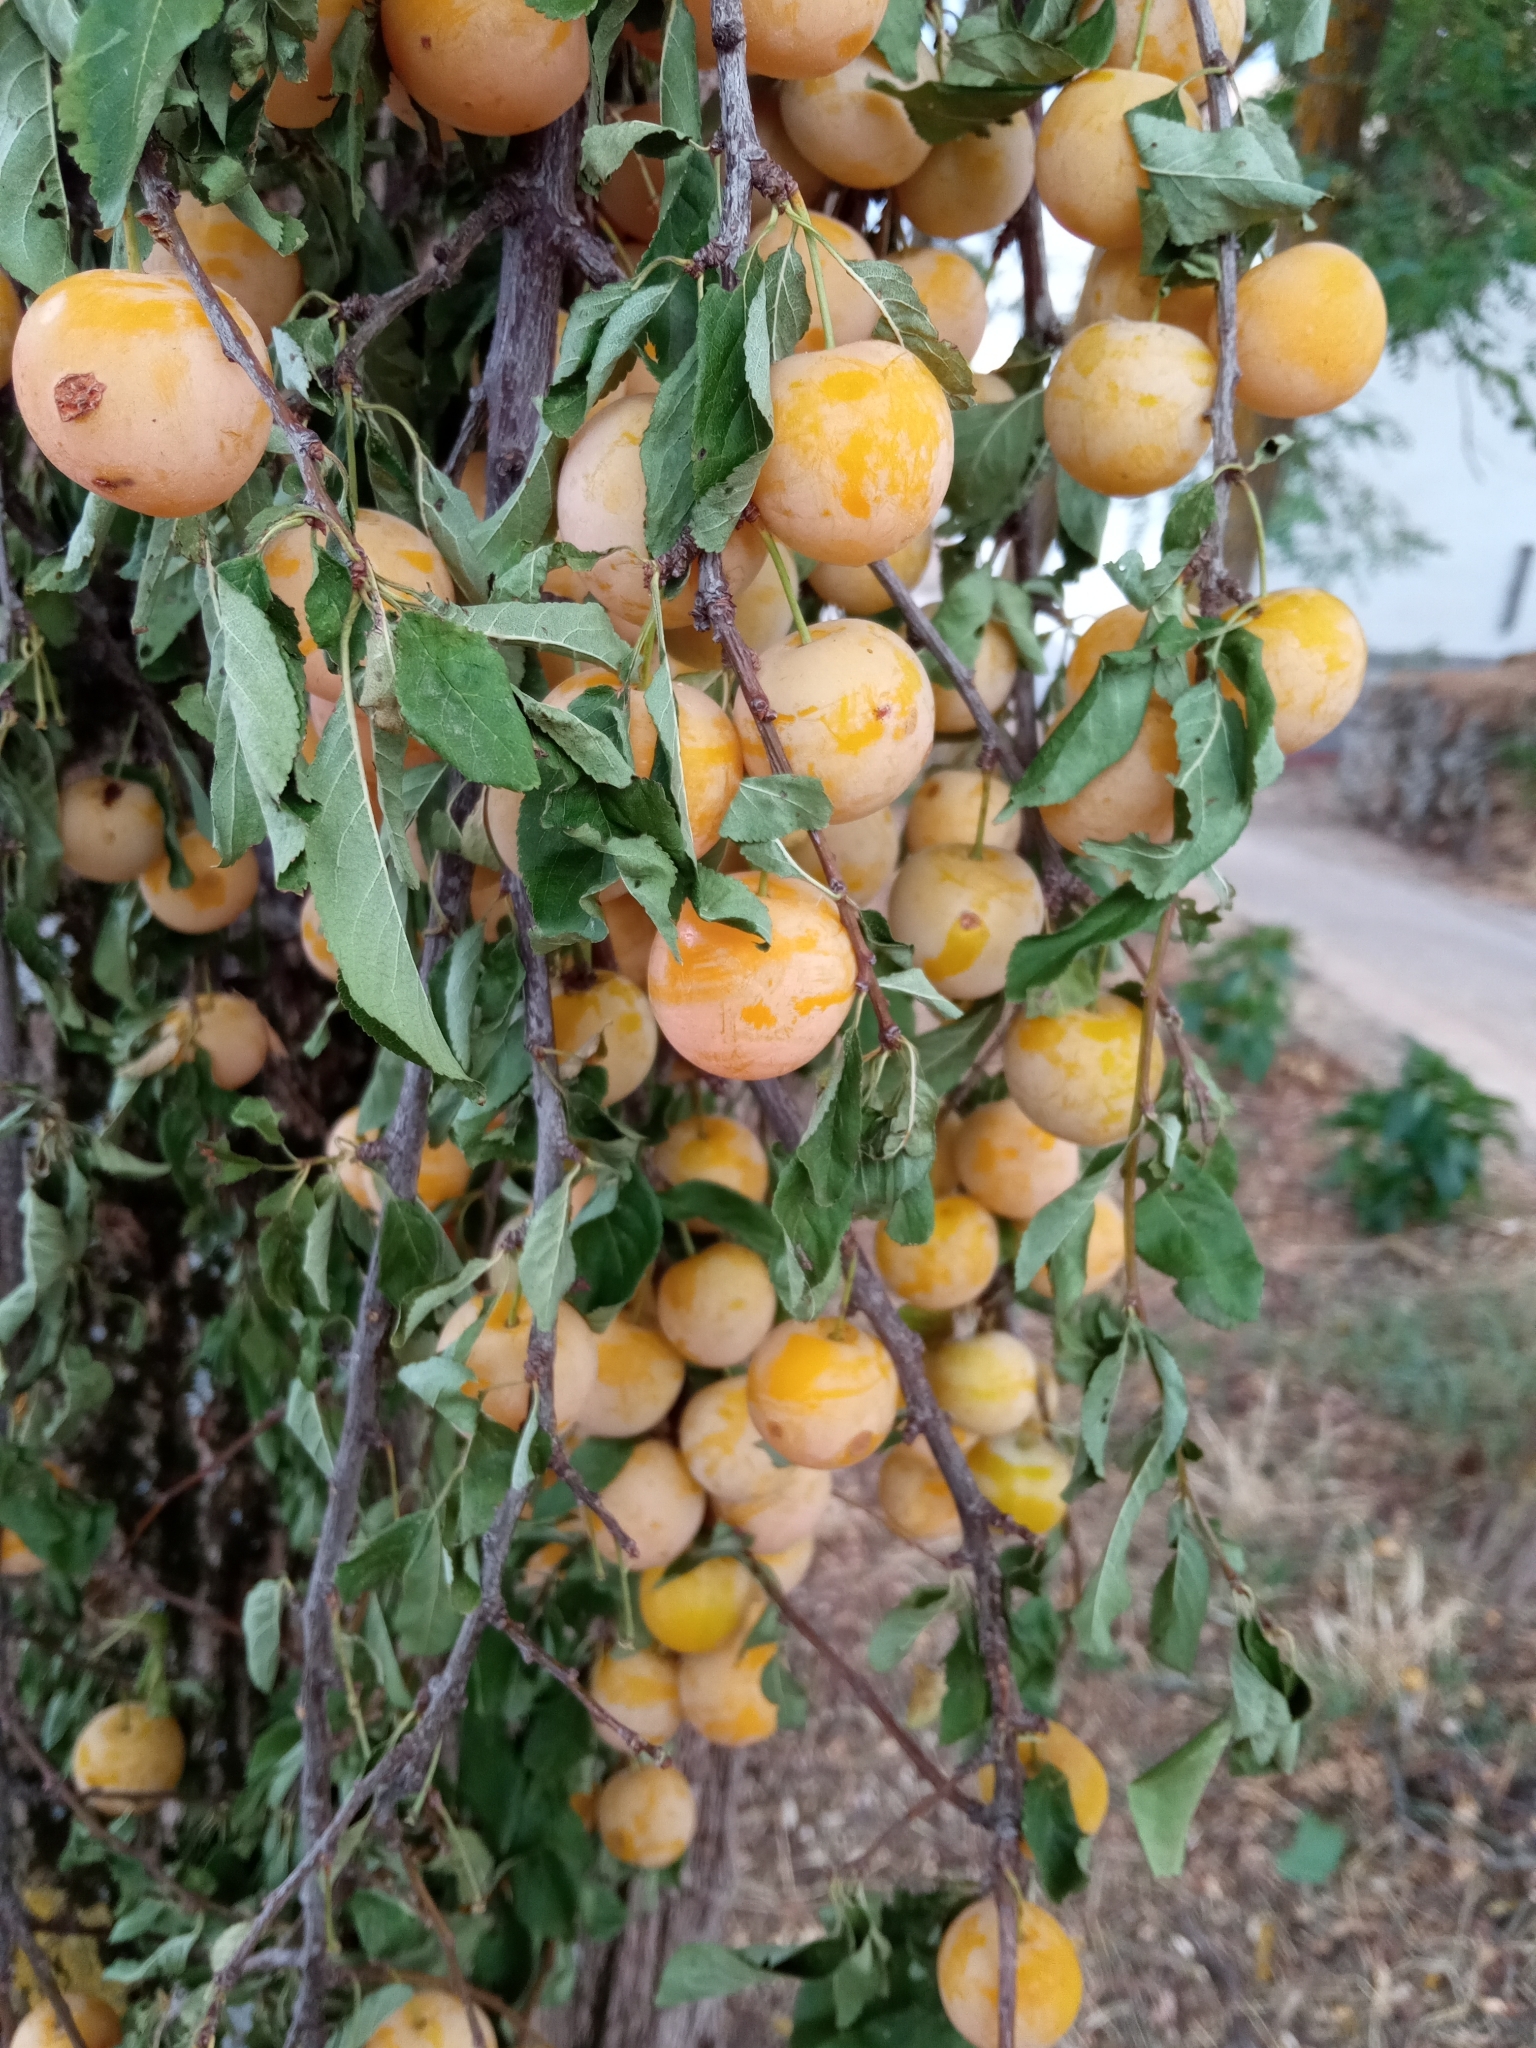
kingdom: Plantae
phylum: Tracheophyta
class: Magnoliopsida
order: Rosales
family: Rosaceae
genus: Prunus
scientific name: Prunus domestica
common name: Wild plum
